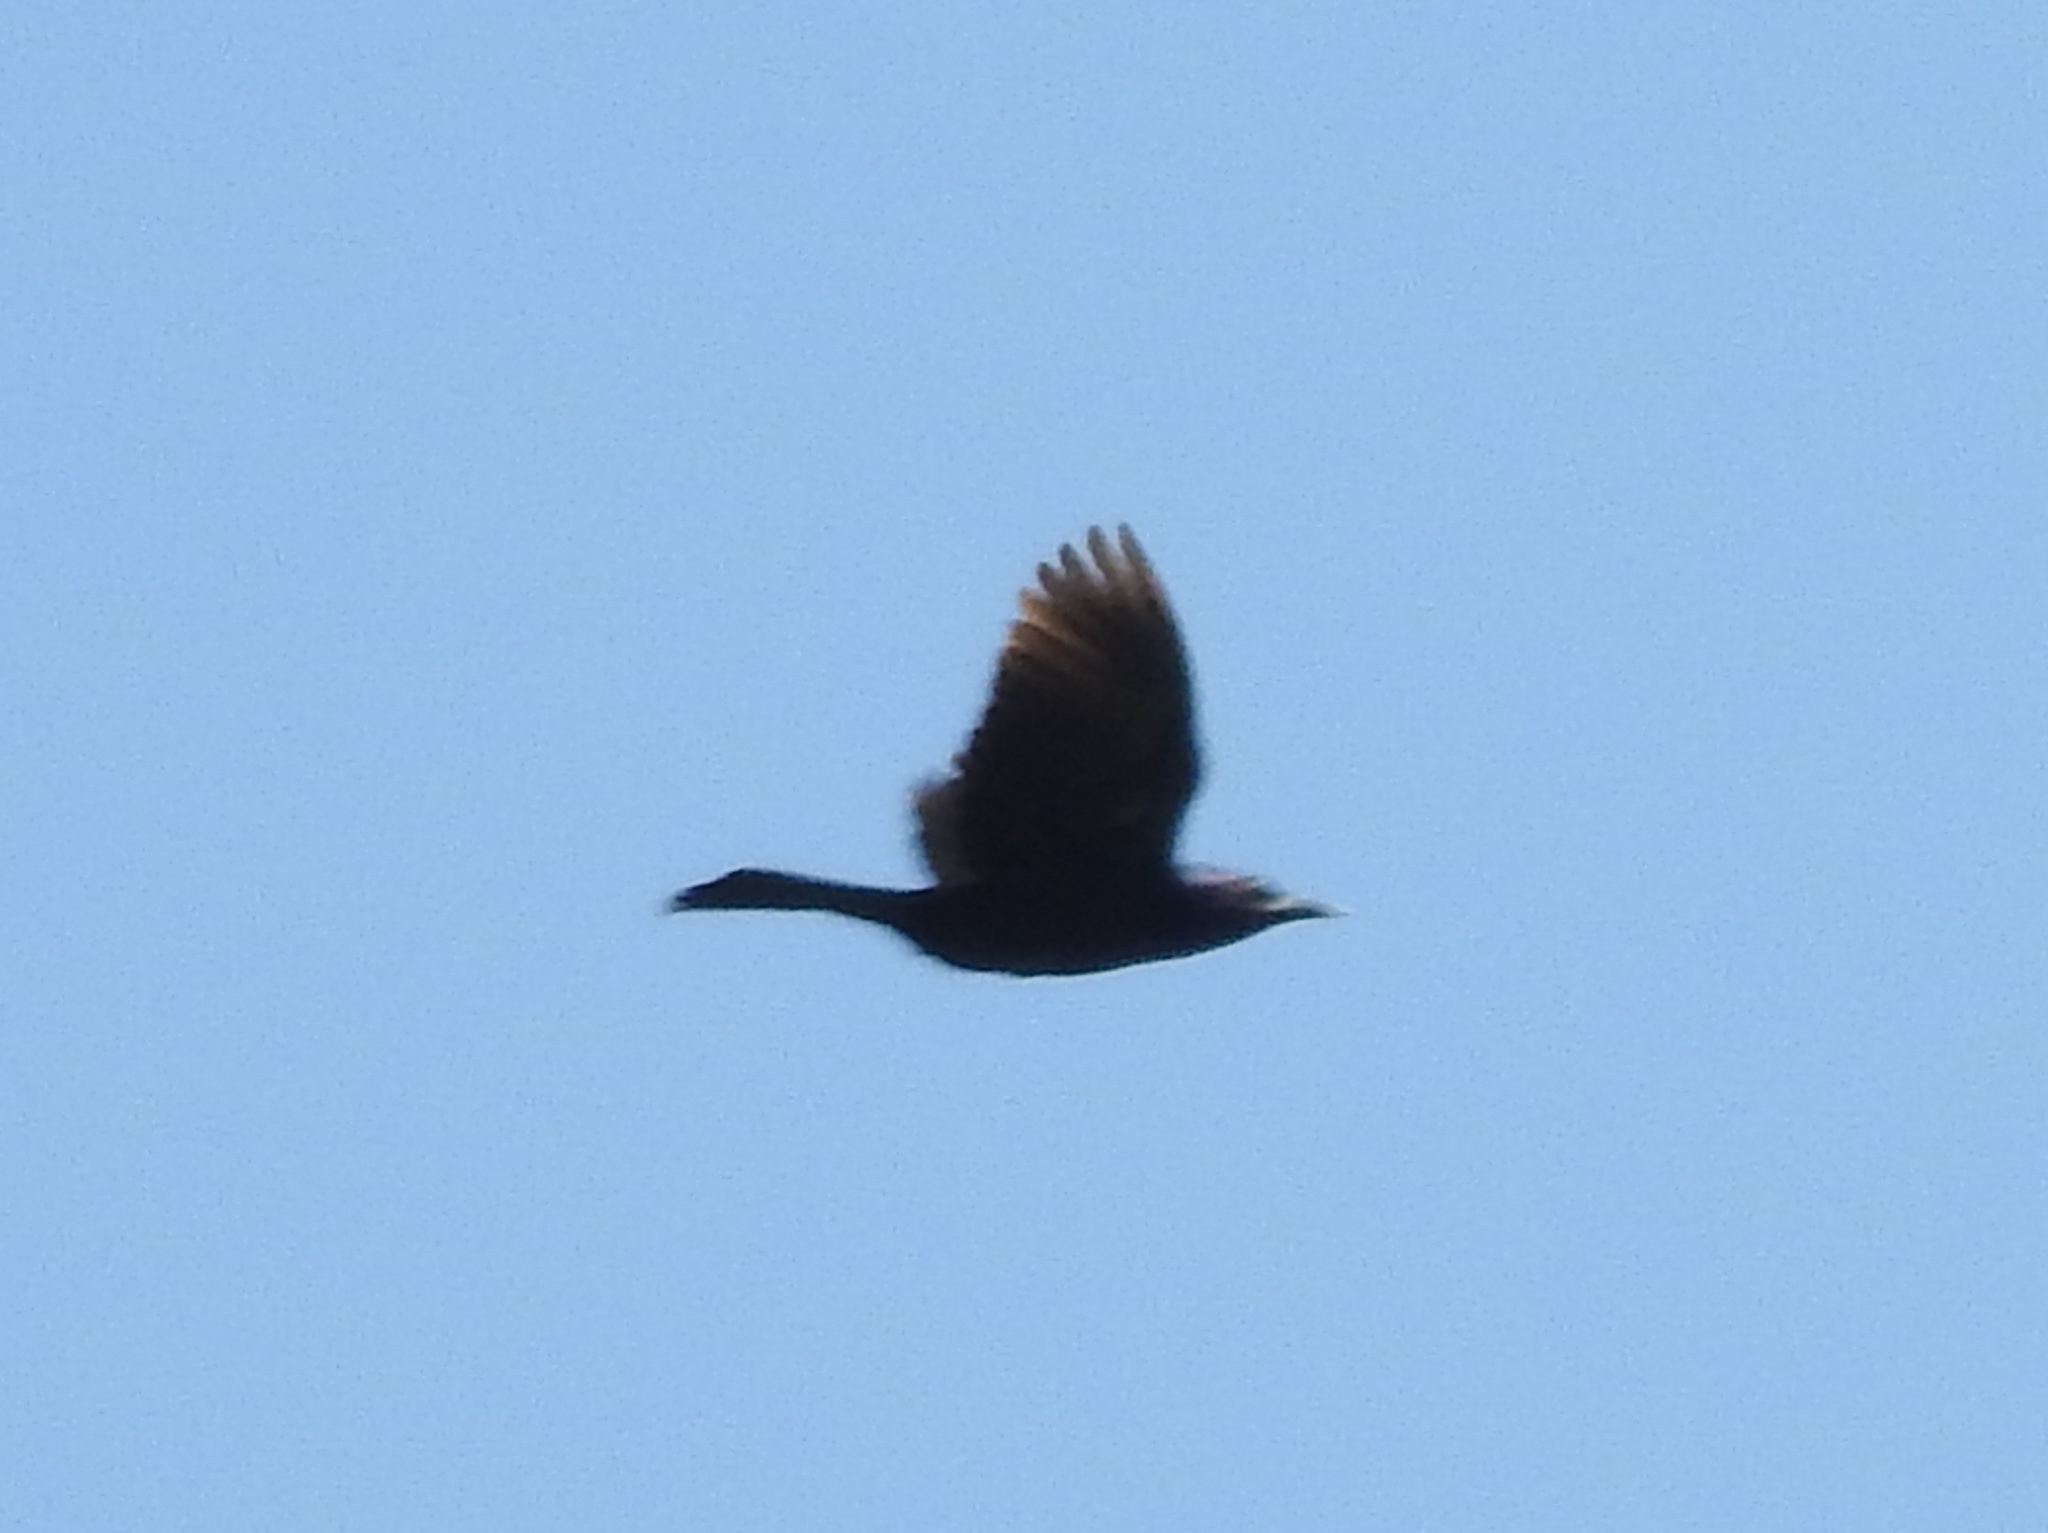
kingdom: Animalia
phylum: Chordata
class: Aves
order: Passeriformes
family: Icteridae
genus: Quiscalus
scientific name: Quiscalus quiscula
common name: Common grackle
